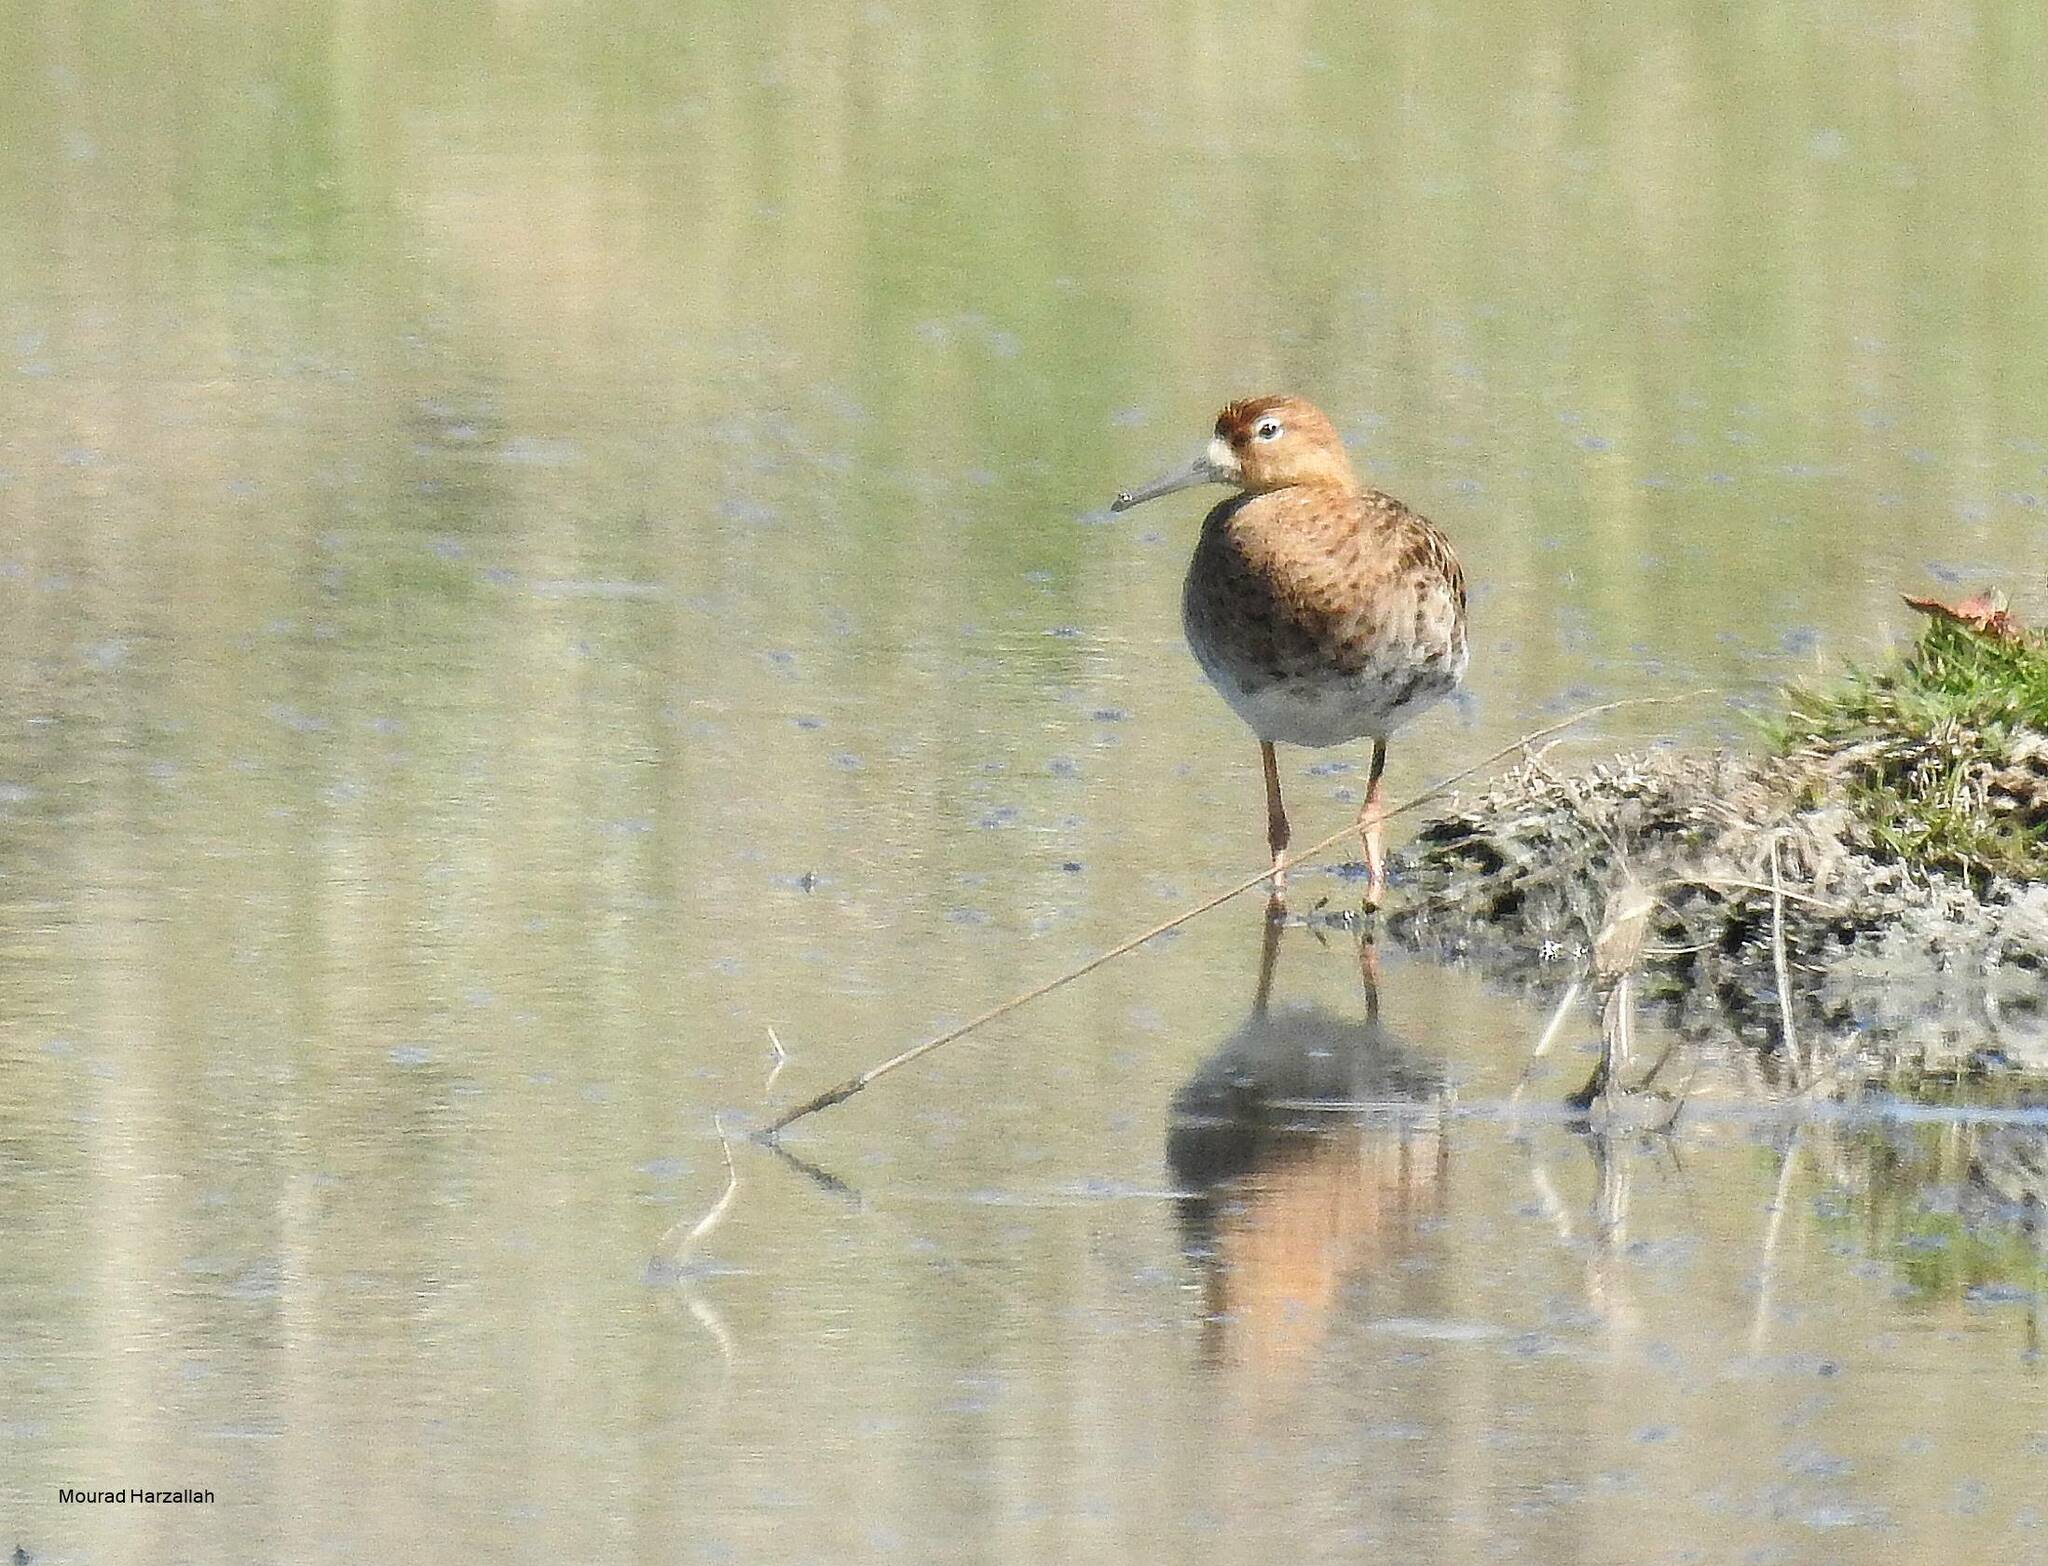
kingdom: Animalia
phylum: Chordata
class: Aves
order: Charadriiformes
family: Scolopacidae
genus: Calidris
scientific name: Calidris pugnax
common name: Ruff
